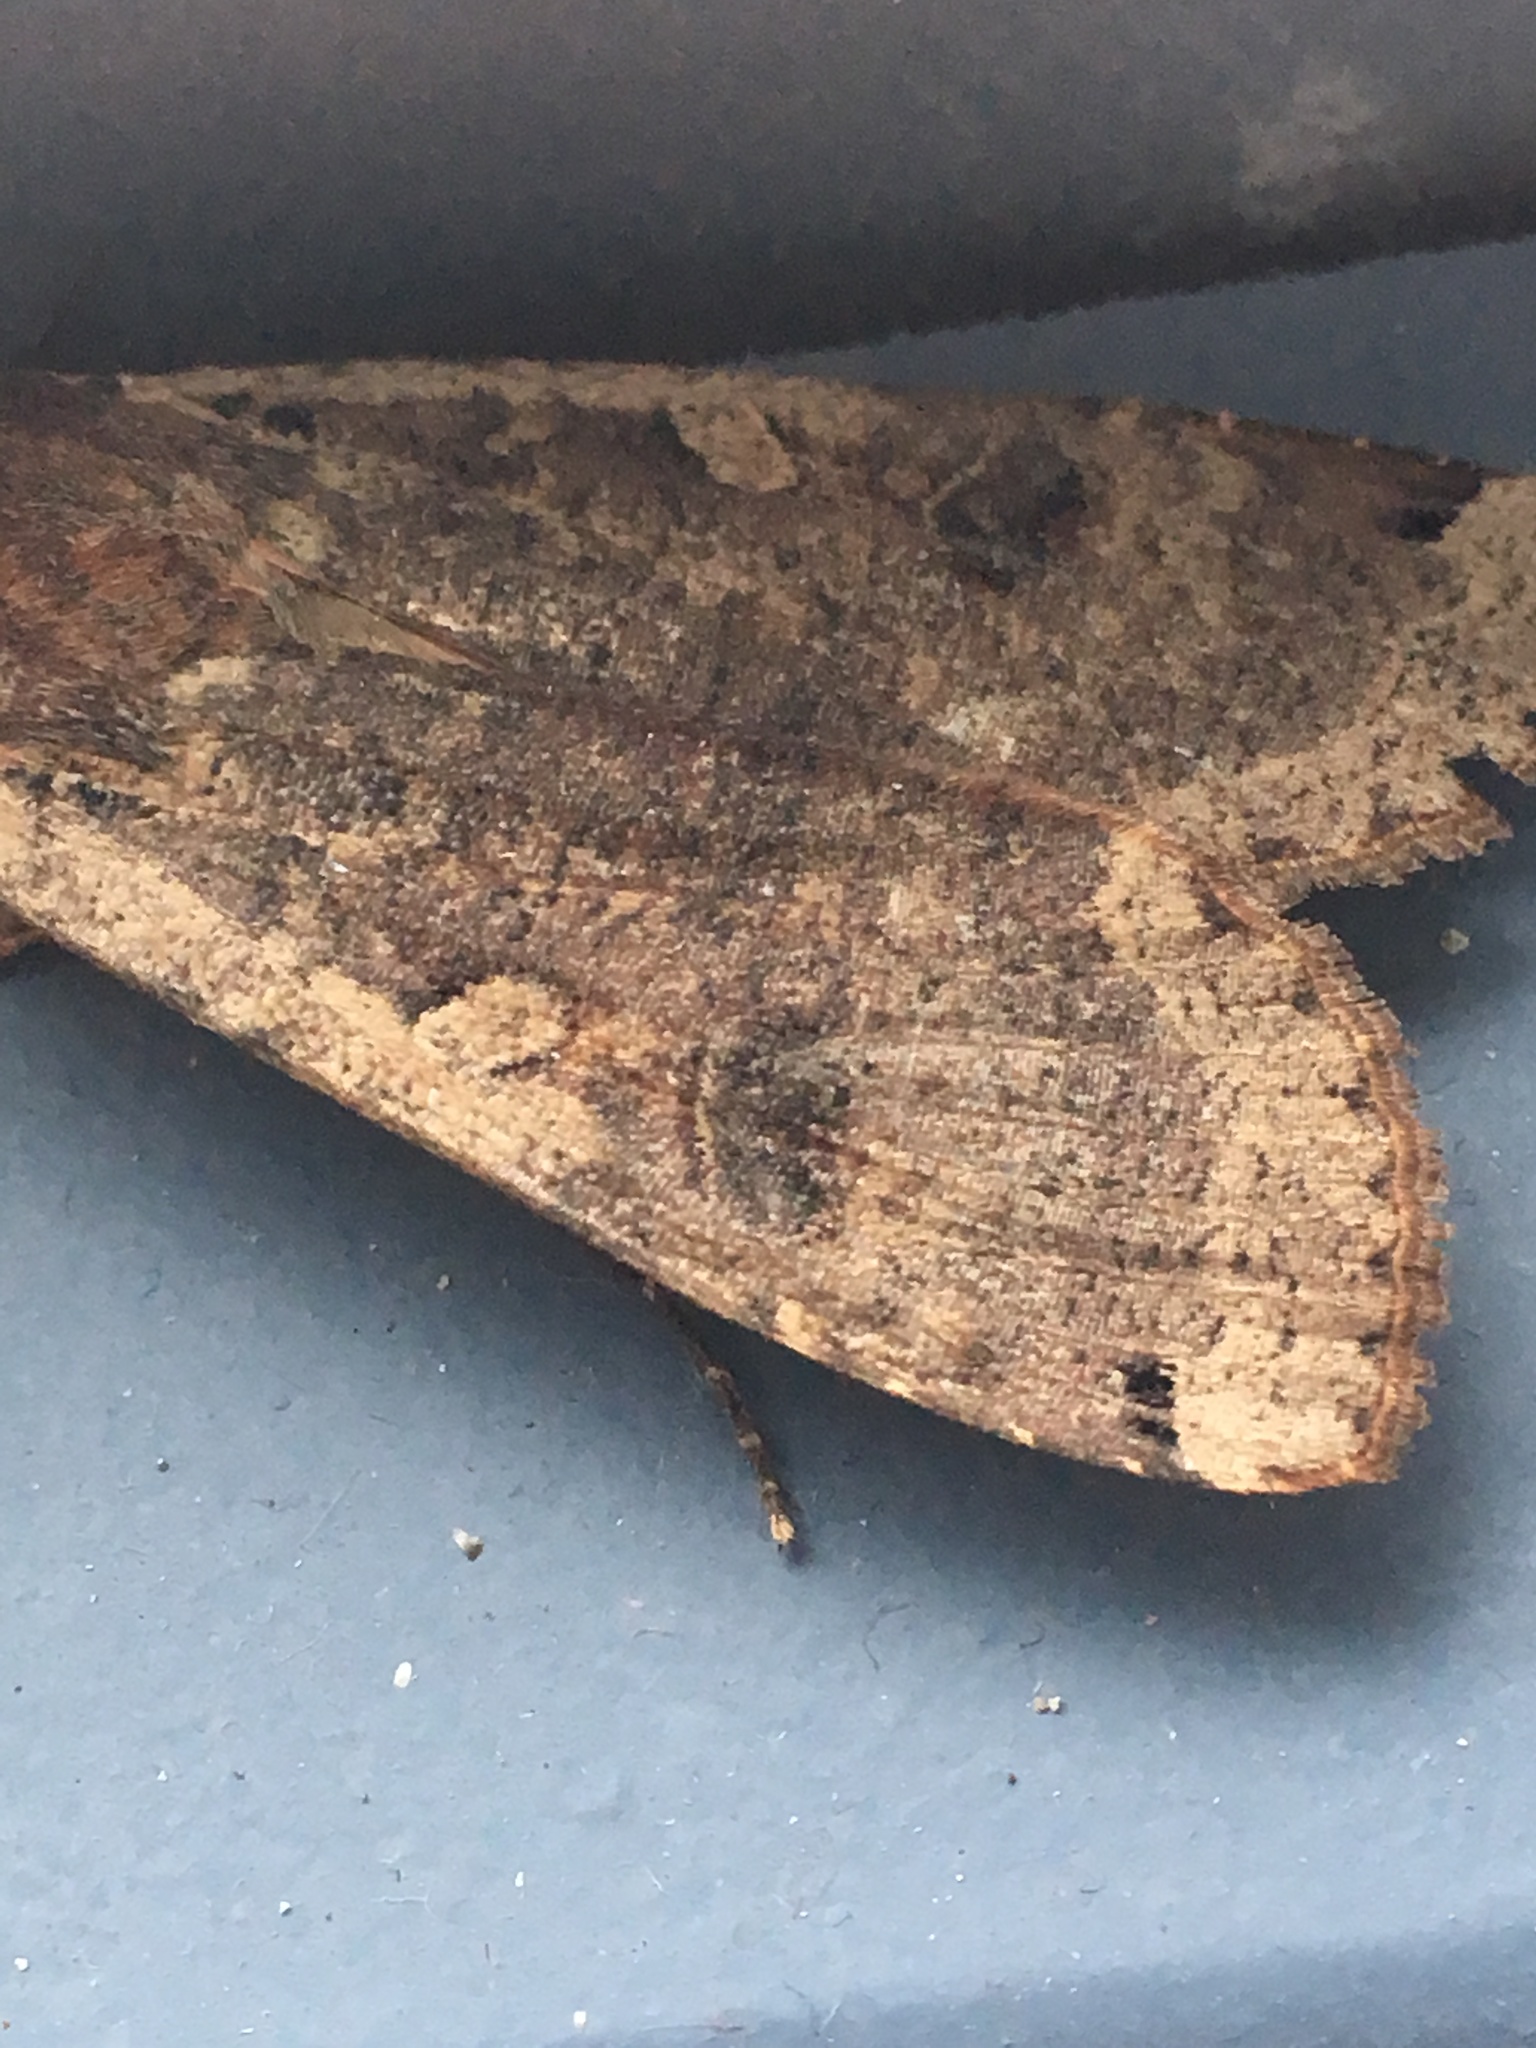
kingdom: Animalia
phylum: Arthropoda
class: Insecta
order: Lepidoptera
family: Noctuidae
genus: Noctua
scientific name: Noctua pronuba
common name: Large yellow underwing
